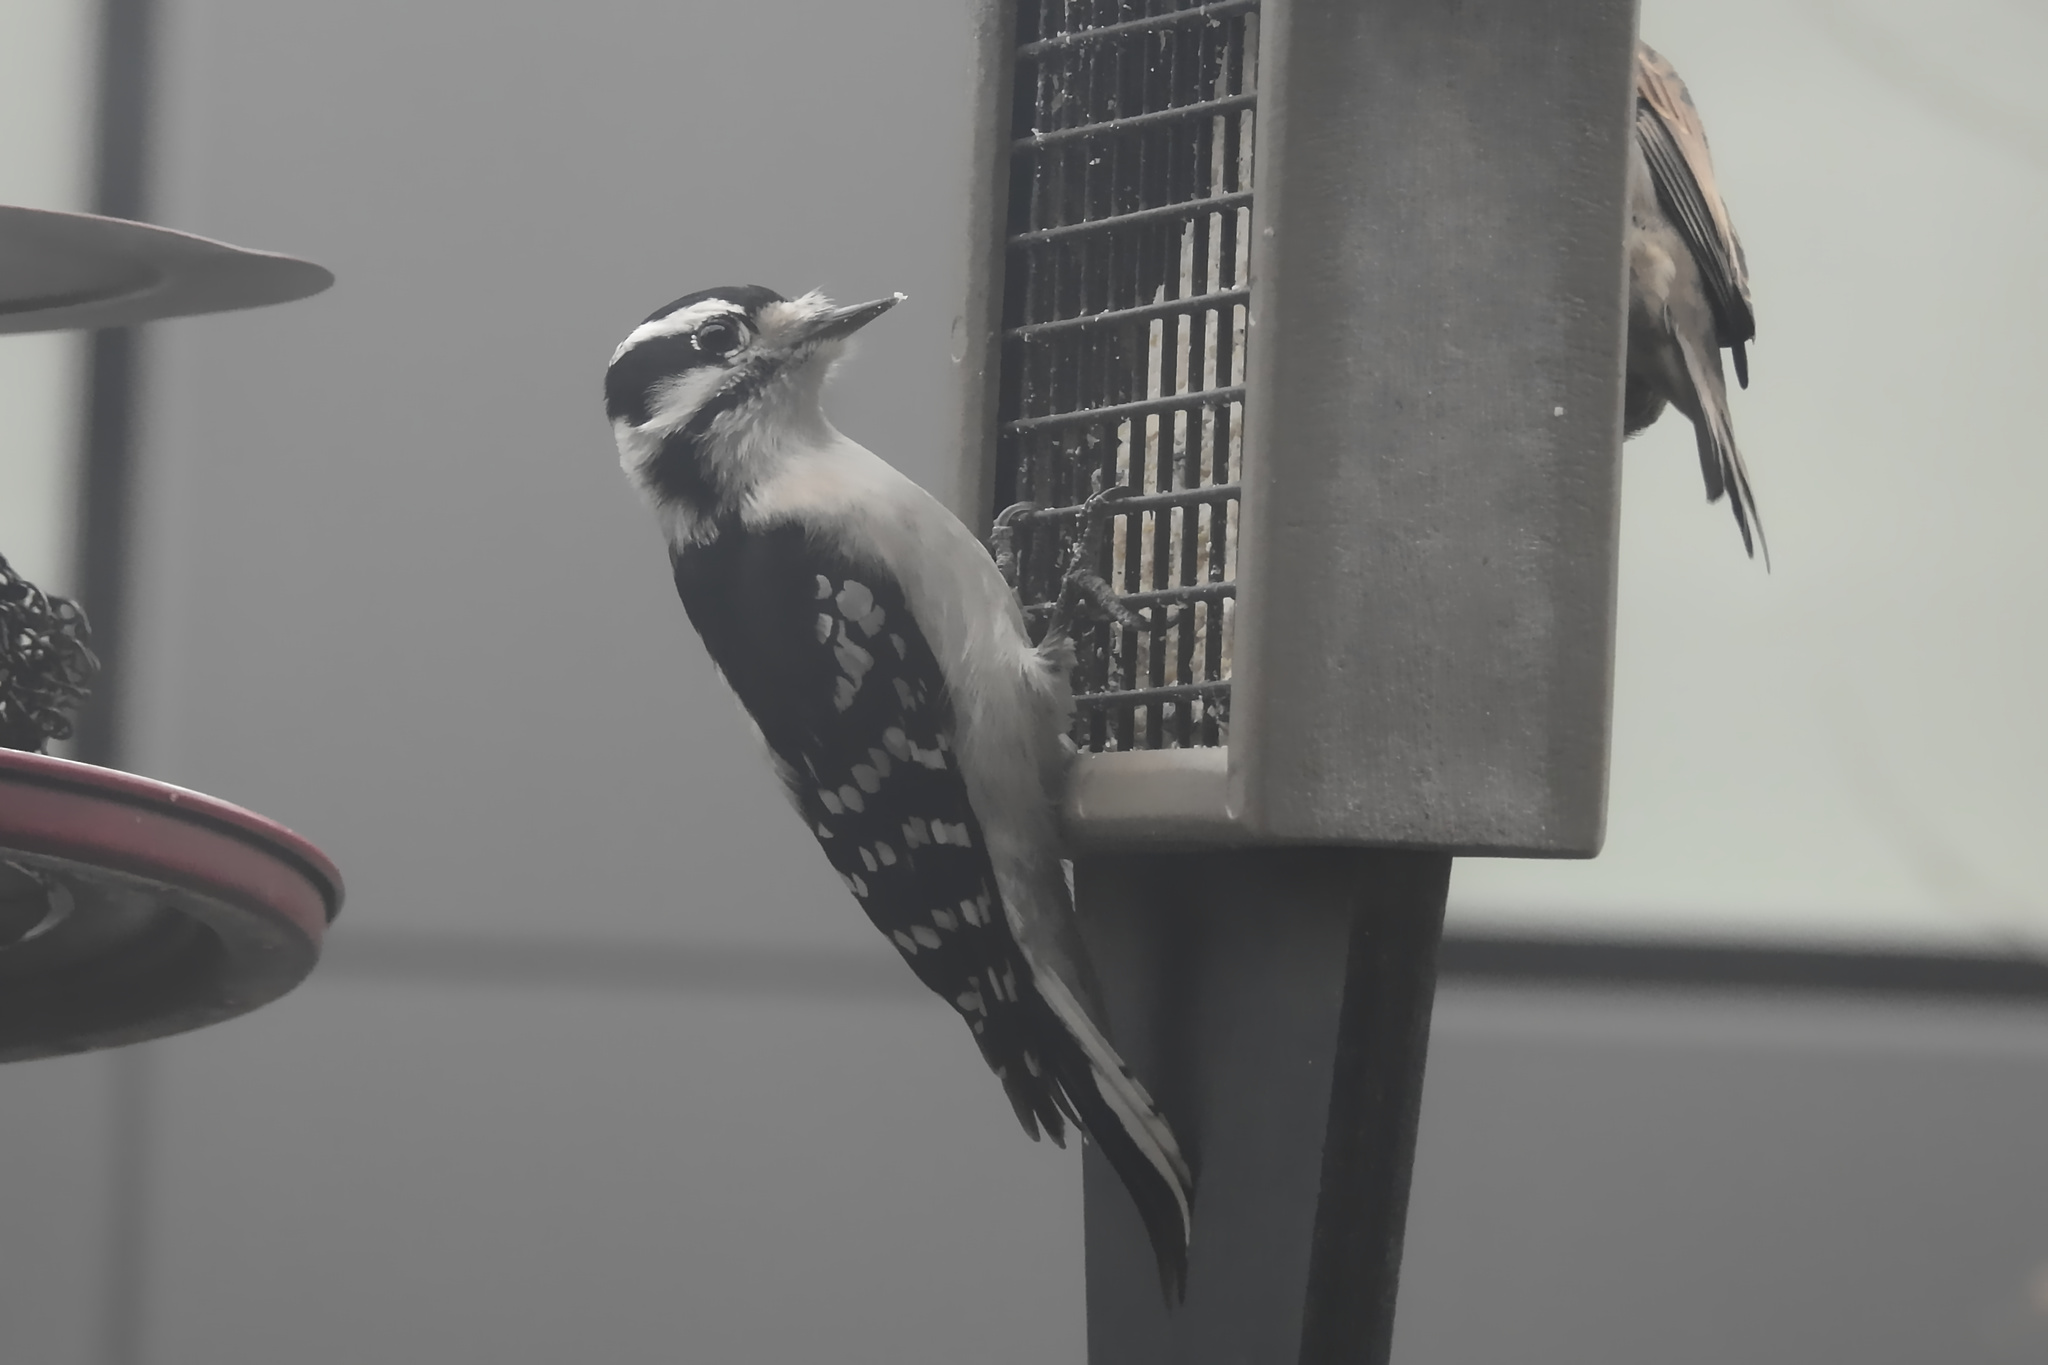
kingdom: Animalia
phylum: Chordata
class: Aves
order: Piciformes
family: Picidae
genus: Dryobates
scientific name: Dryobates pubescens
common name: Downy woodpecker
